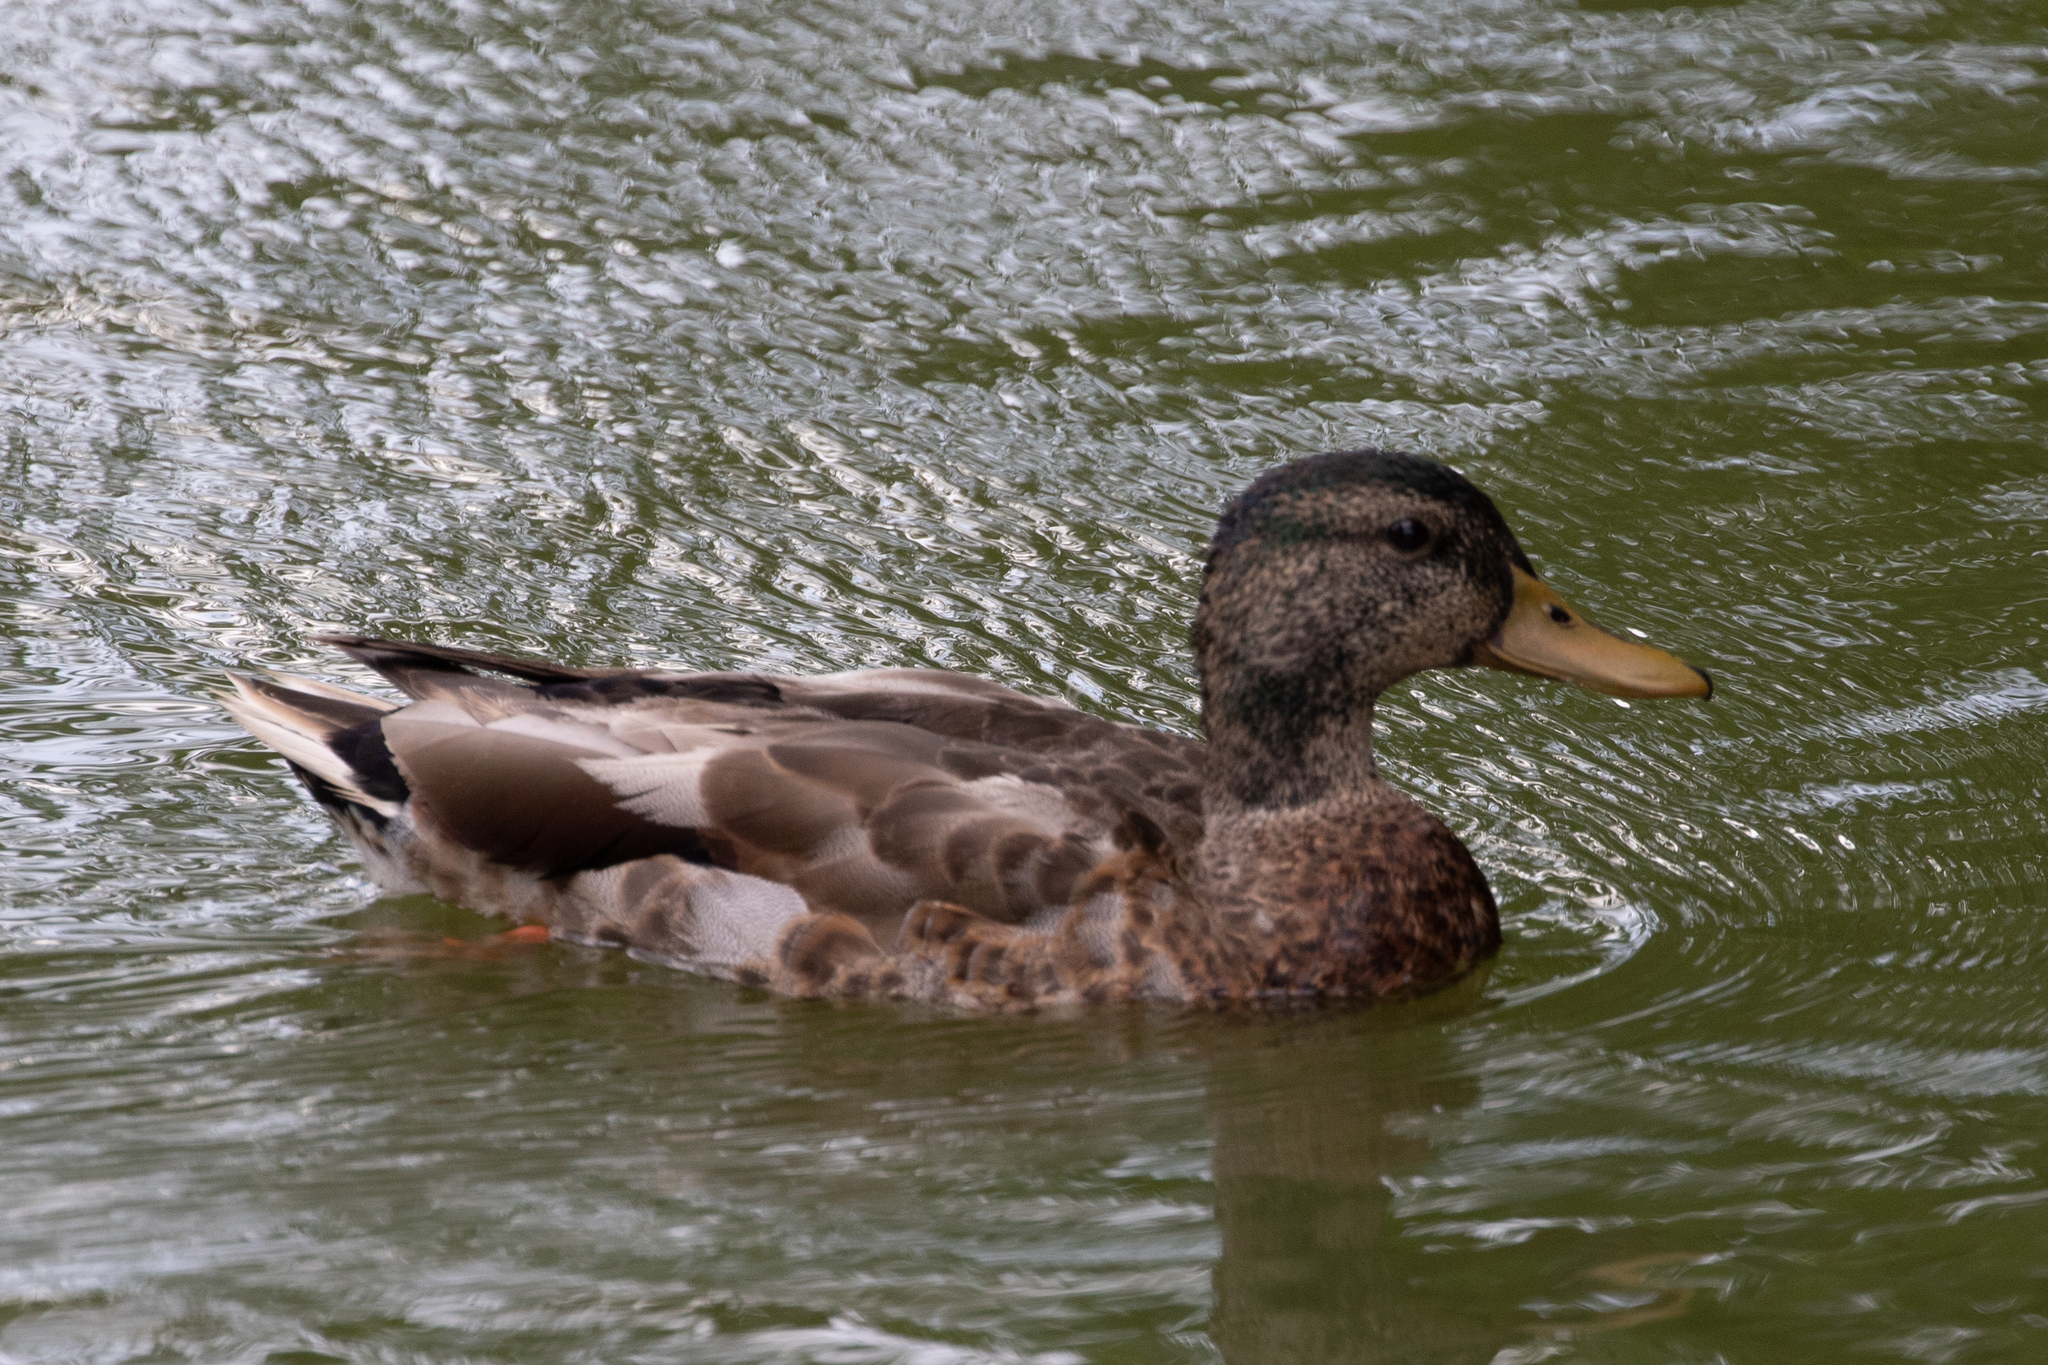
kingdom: Animalia
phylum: Chordata
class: Aves
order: Anseriformes
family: Anatidae
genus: Anas
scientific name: Anas platyrhynchos
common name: Mallard
